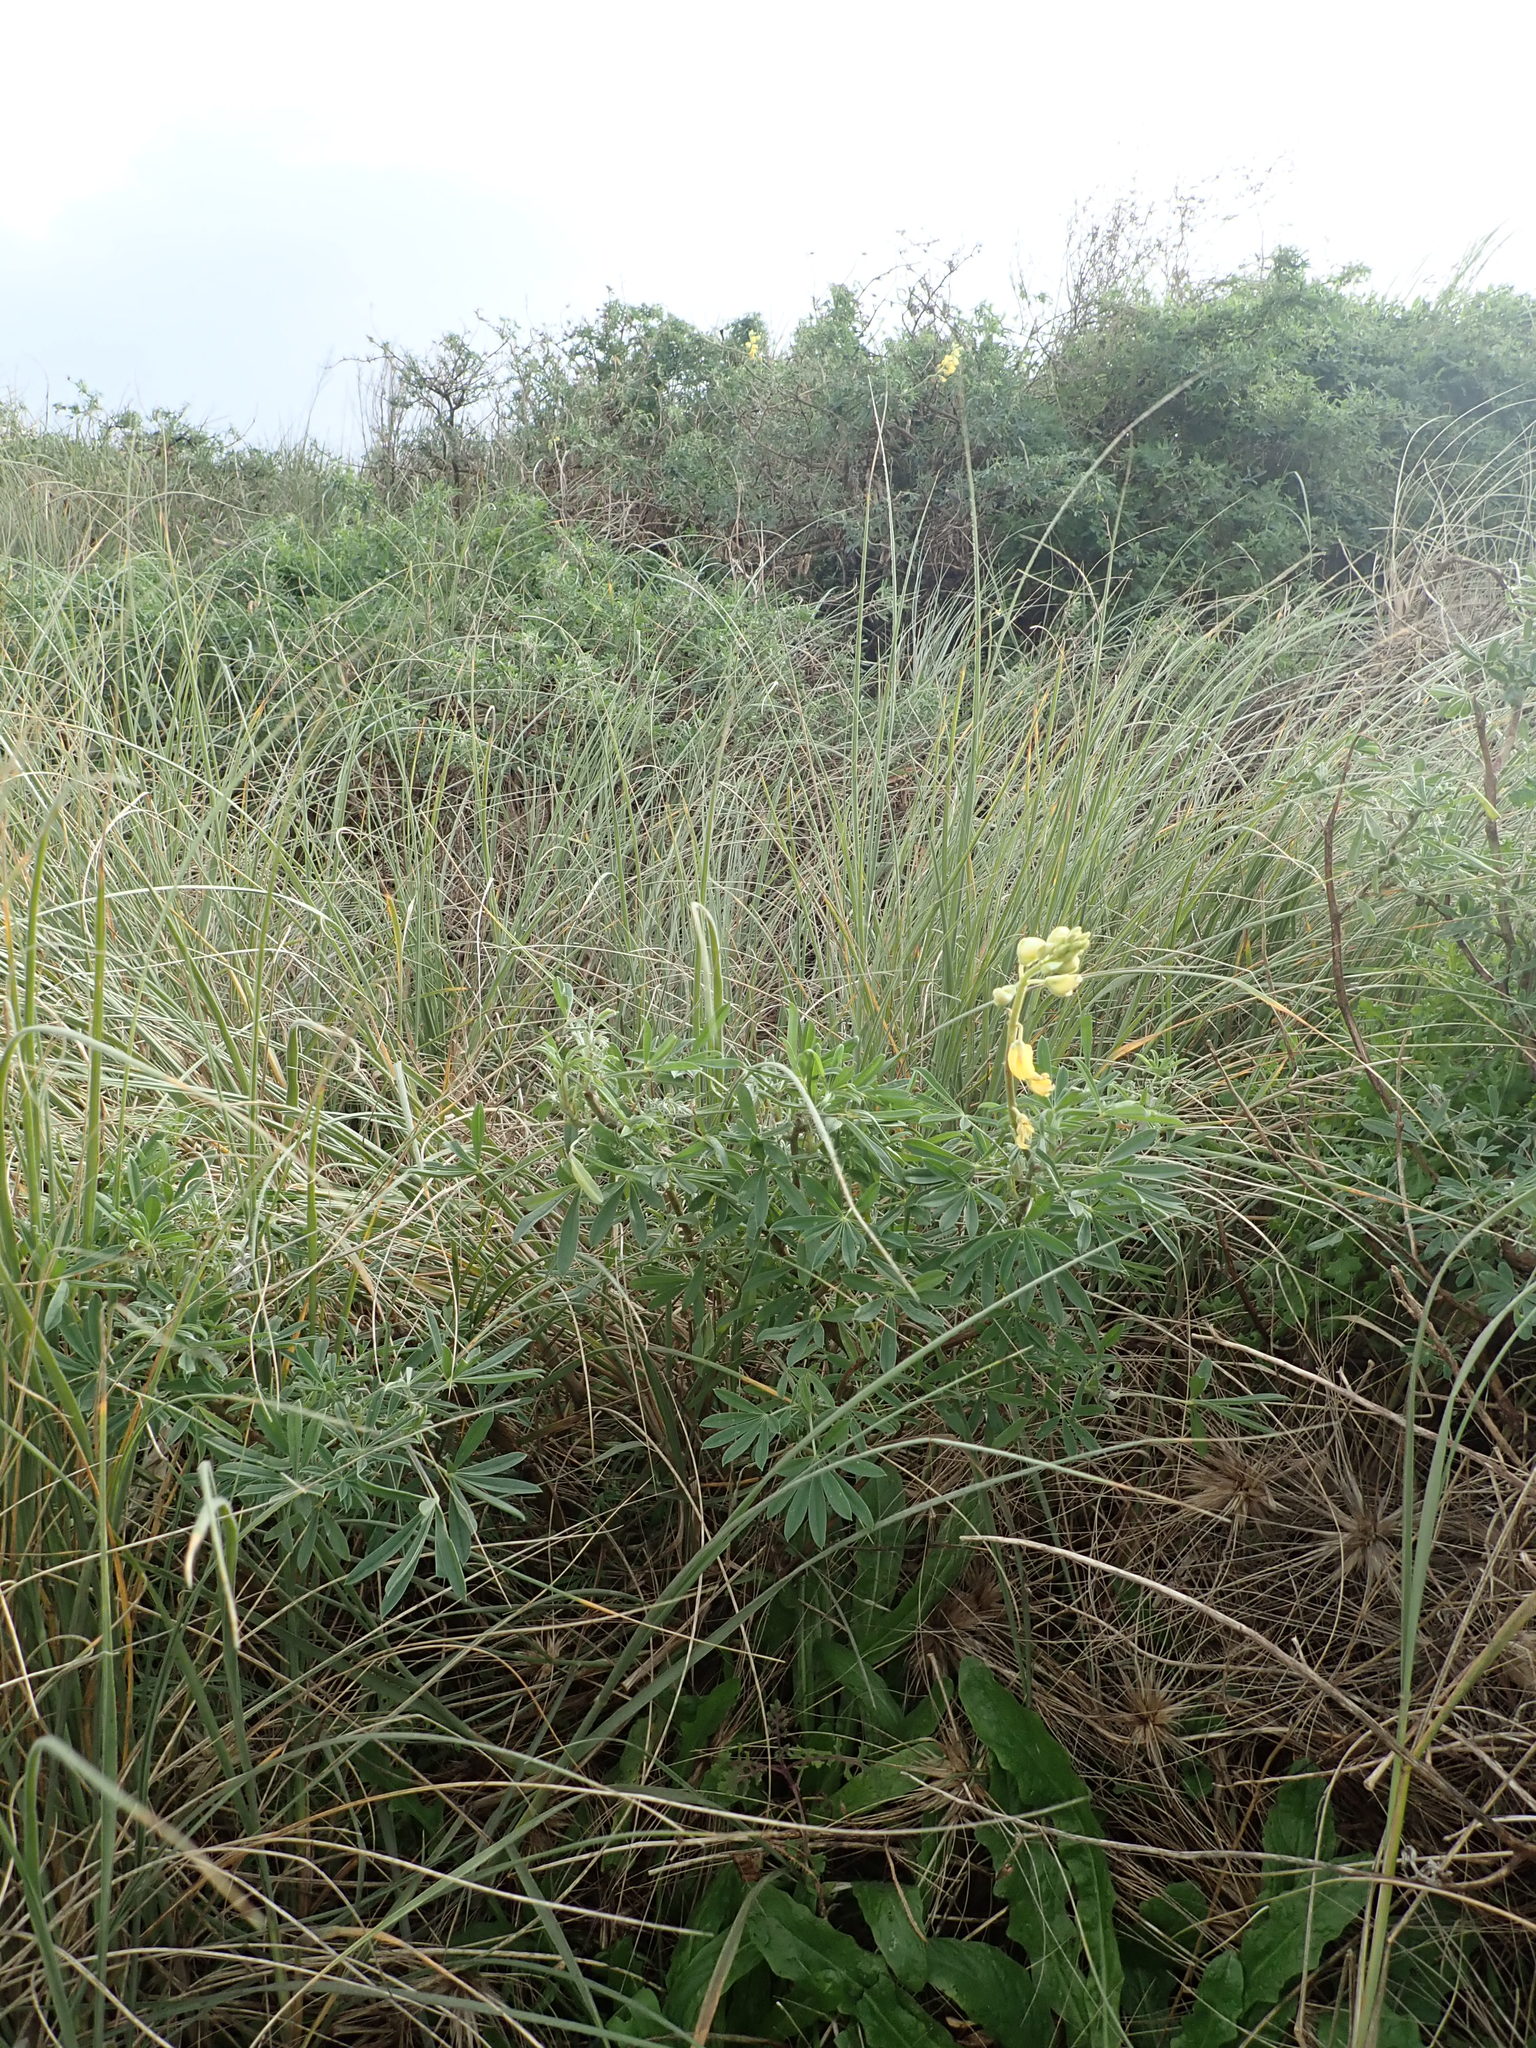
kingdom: Plantae
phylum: Tracheophyta
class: Magnoliopsida
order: Fabales
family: Fabaceae
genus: Lupinus
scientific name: Lupinus arboreus
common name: Yellow bush lupine
